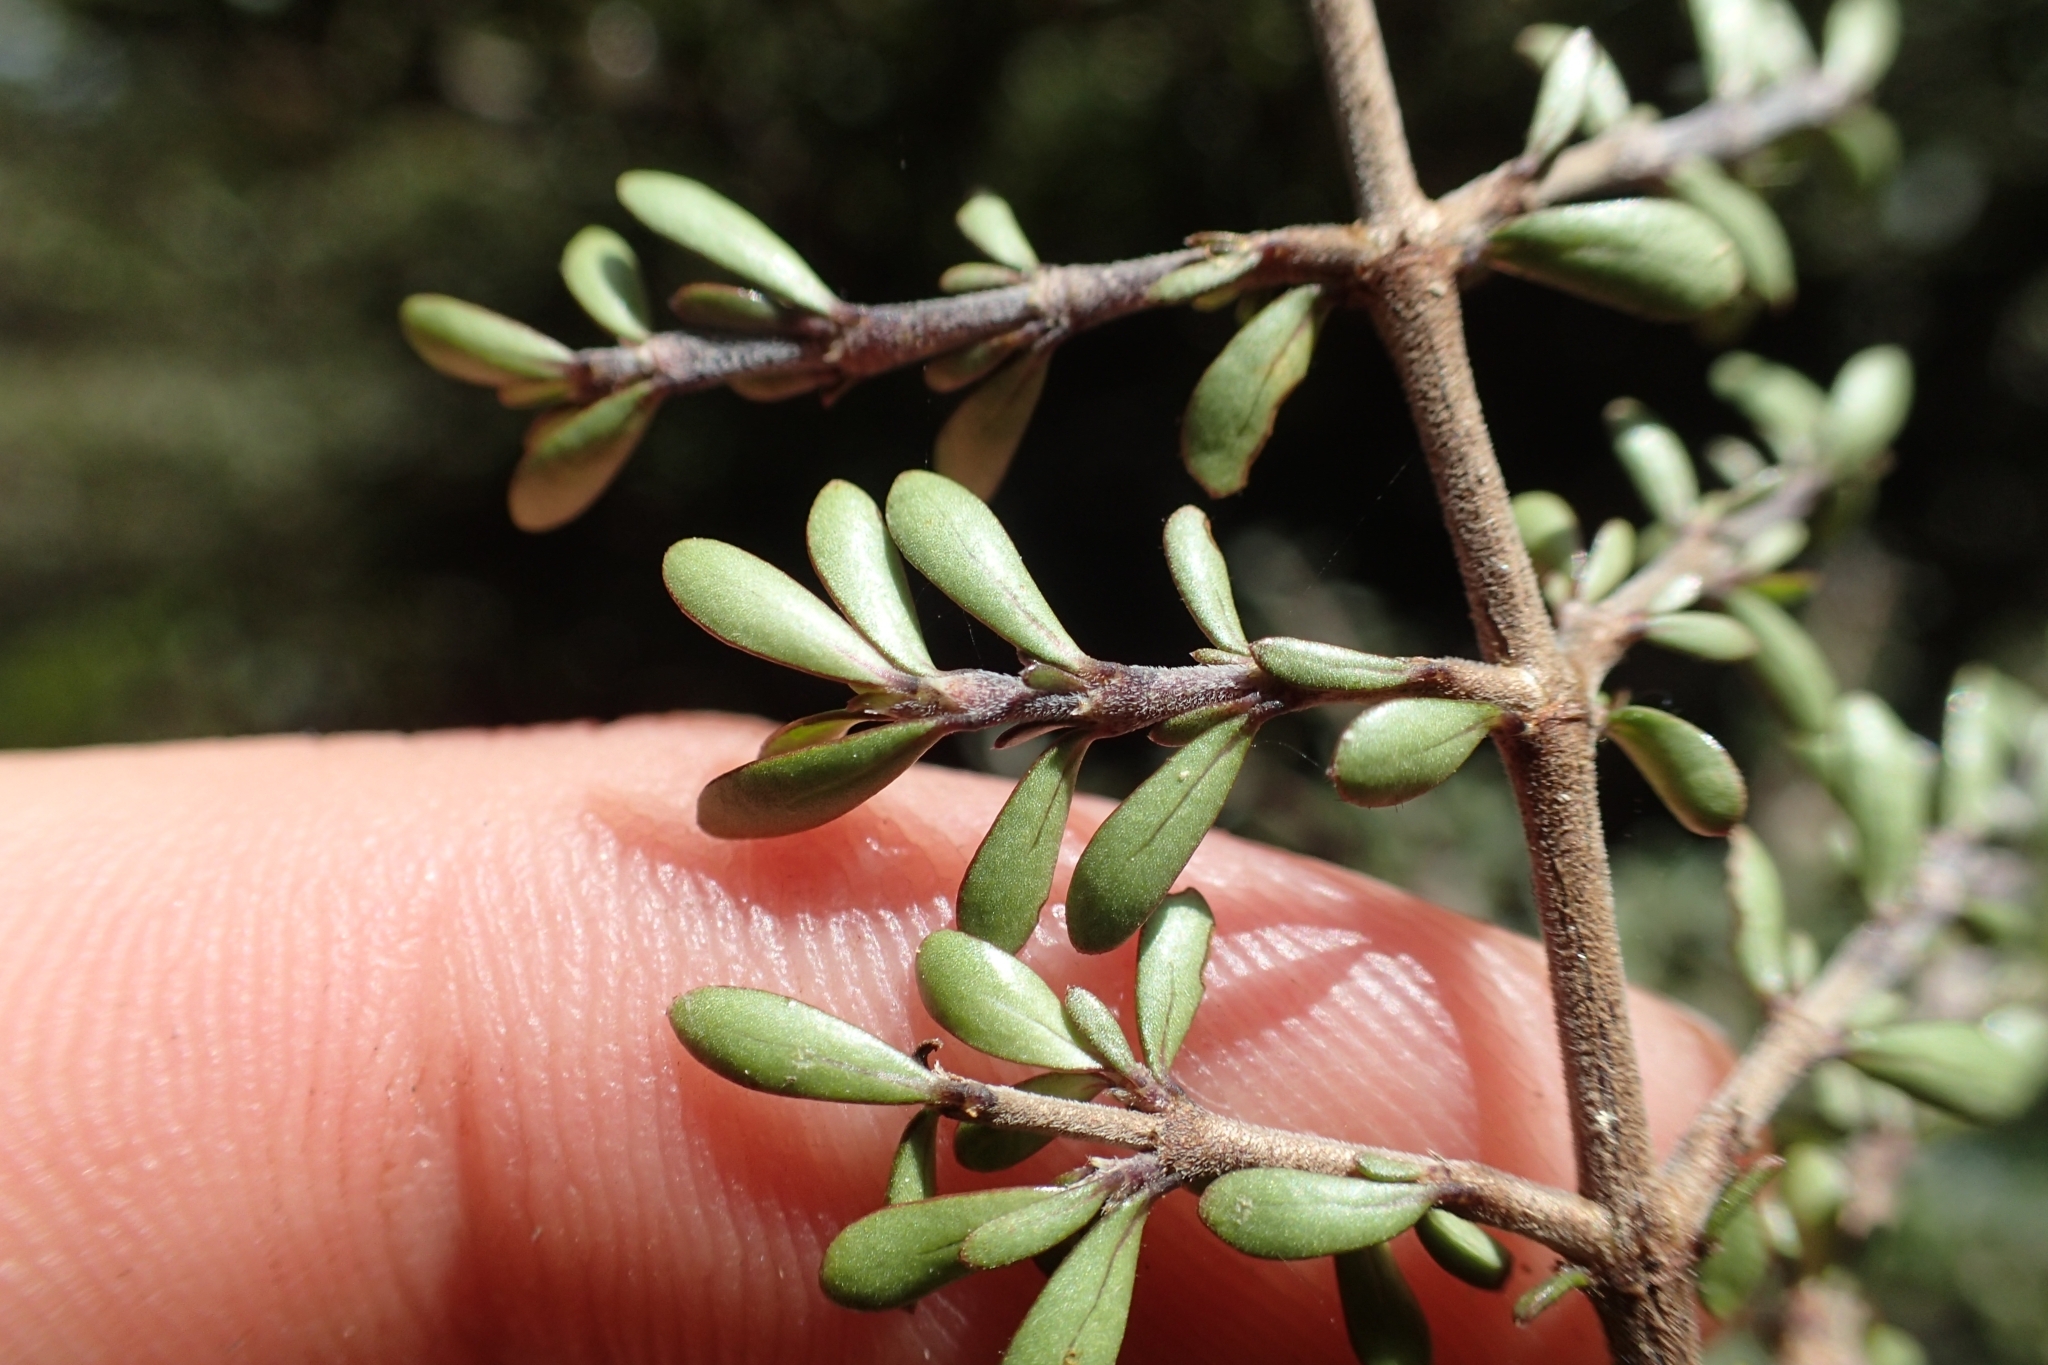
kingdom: Plantae
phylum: Tracheophyta
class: Magnoliopsida
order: Gentianales
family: Rubiaceae
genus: Coprosma
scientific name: Coprosma dumosa
